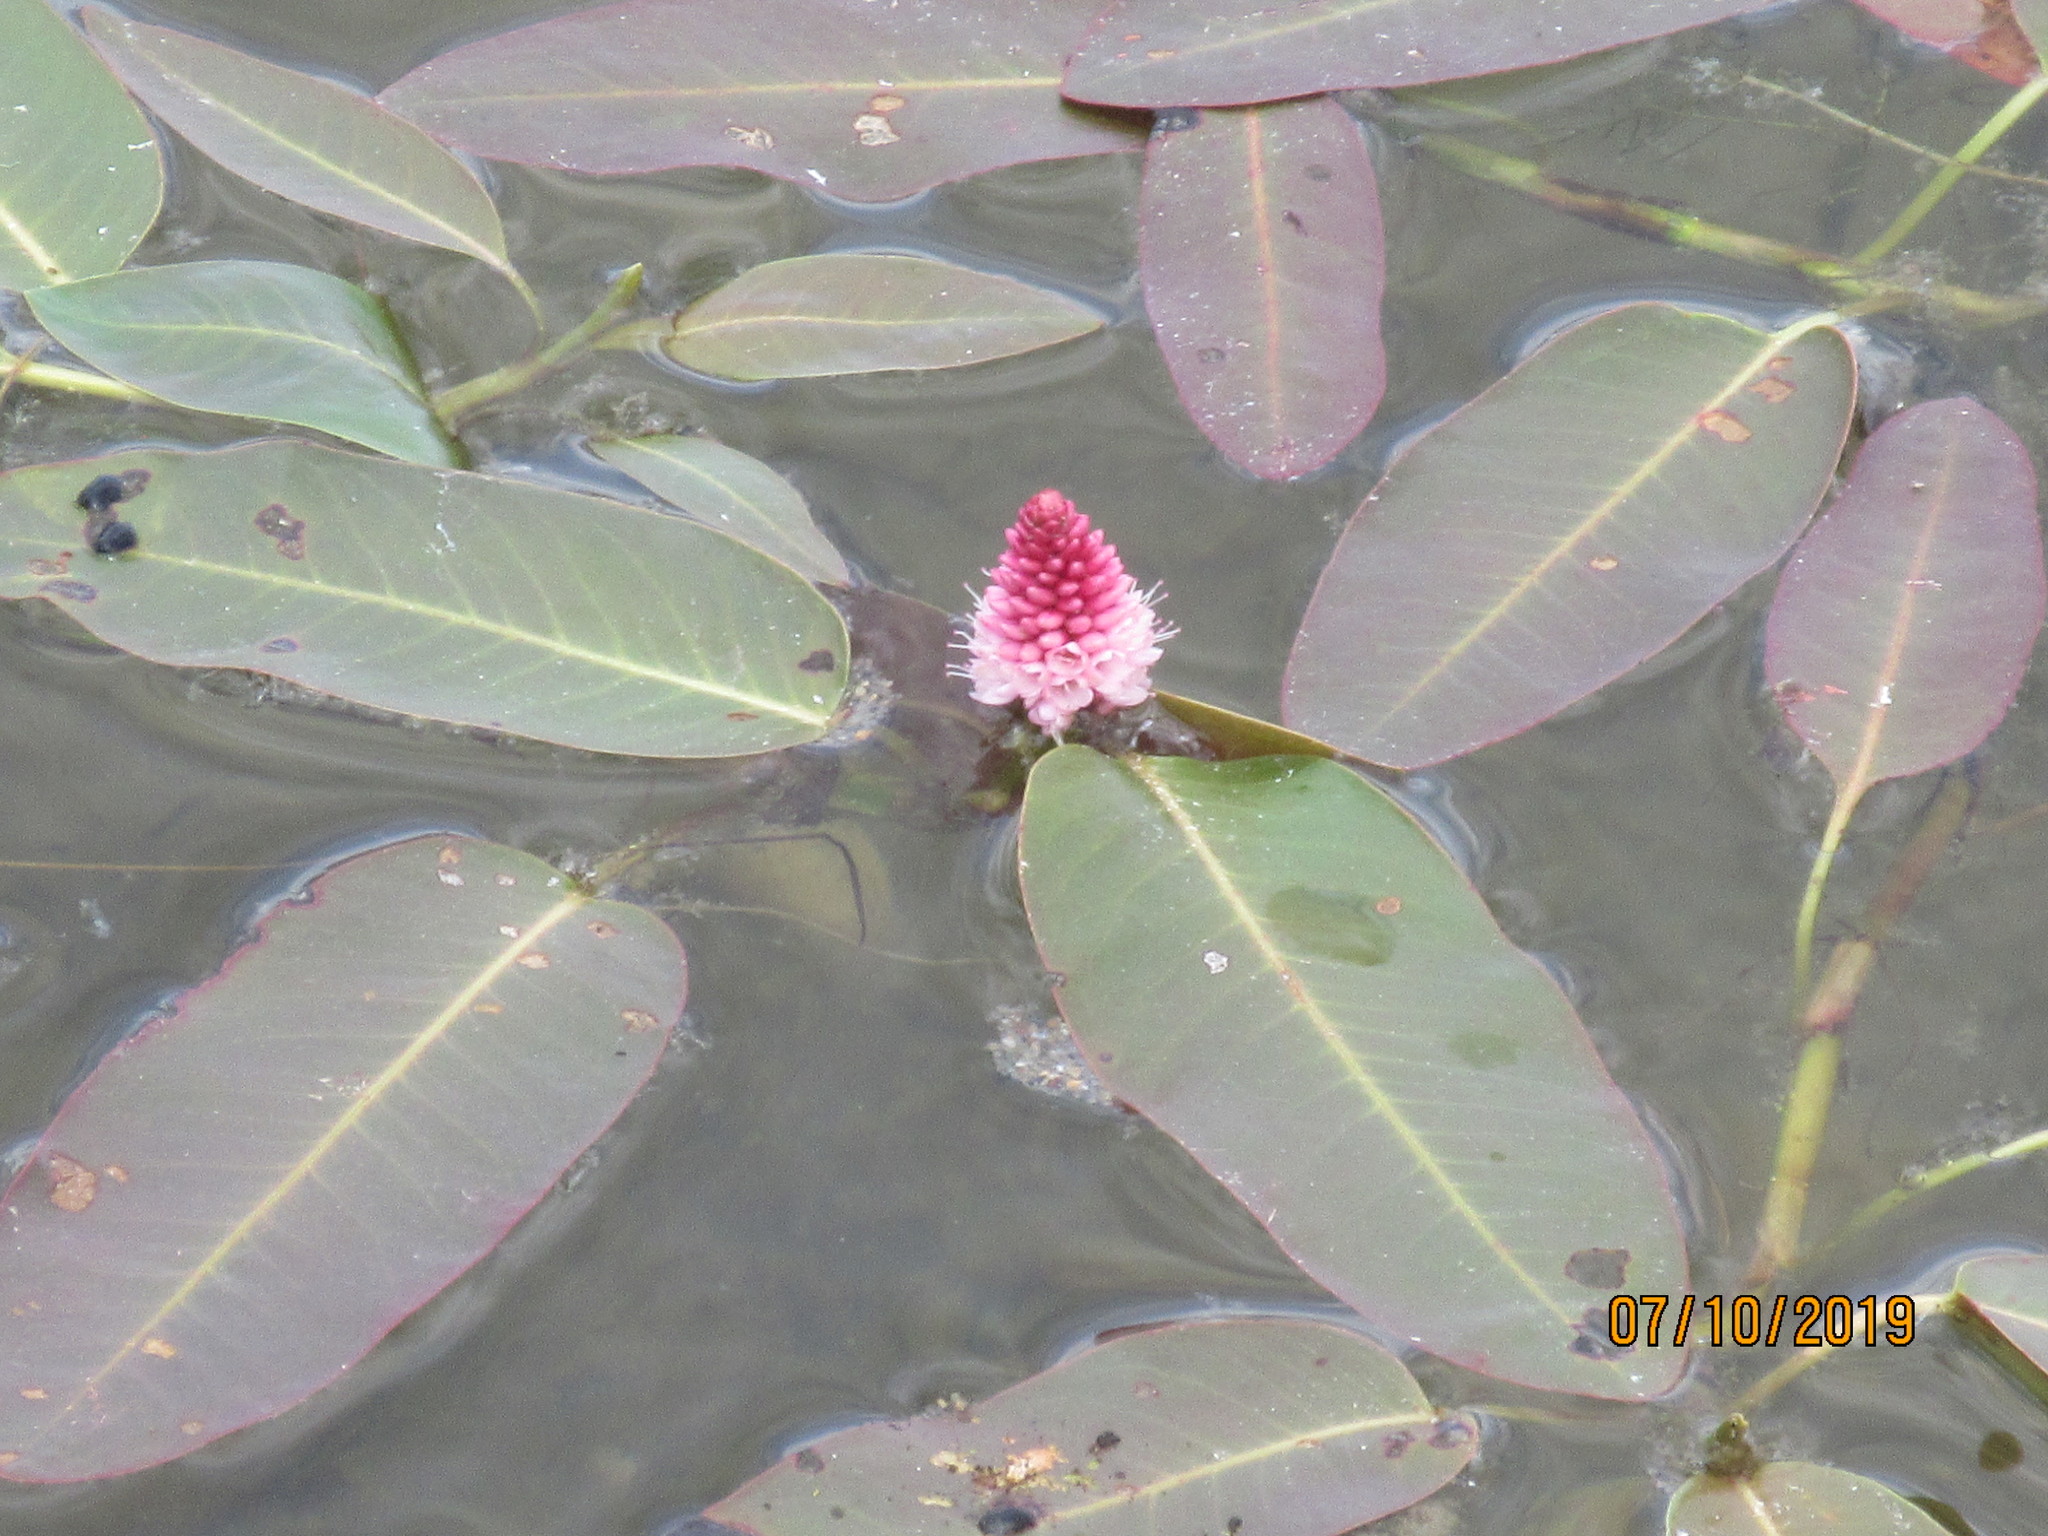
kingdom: Plantae
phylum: Tracheophyta
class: Magnoliopsida
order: Caryophyllales
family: Polygonaceae
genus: Persicaria
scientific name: Persicaria amphibia
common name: Amphibious bistort
